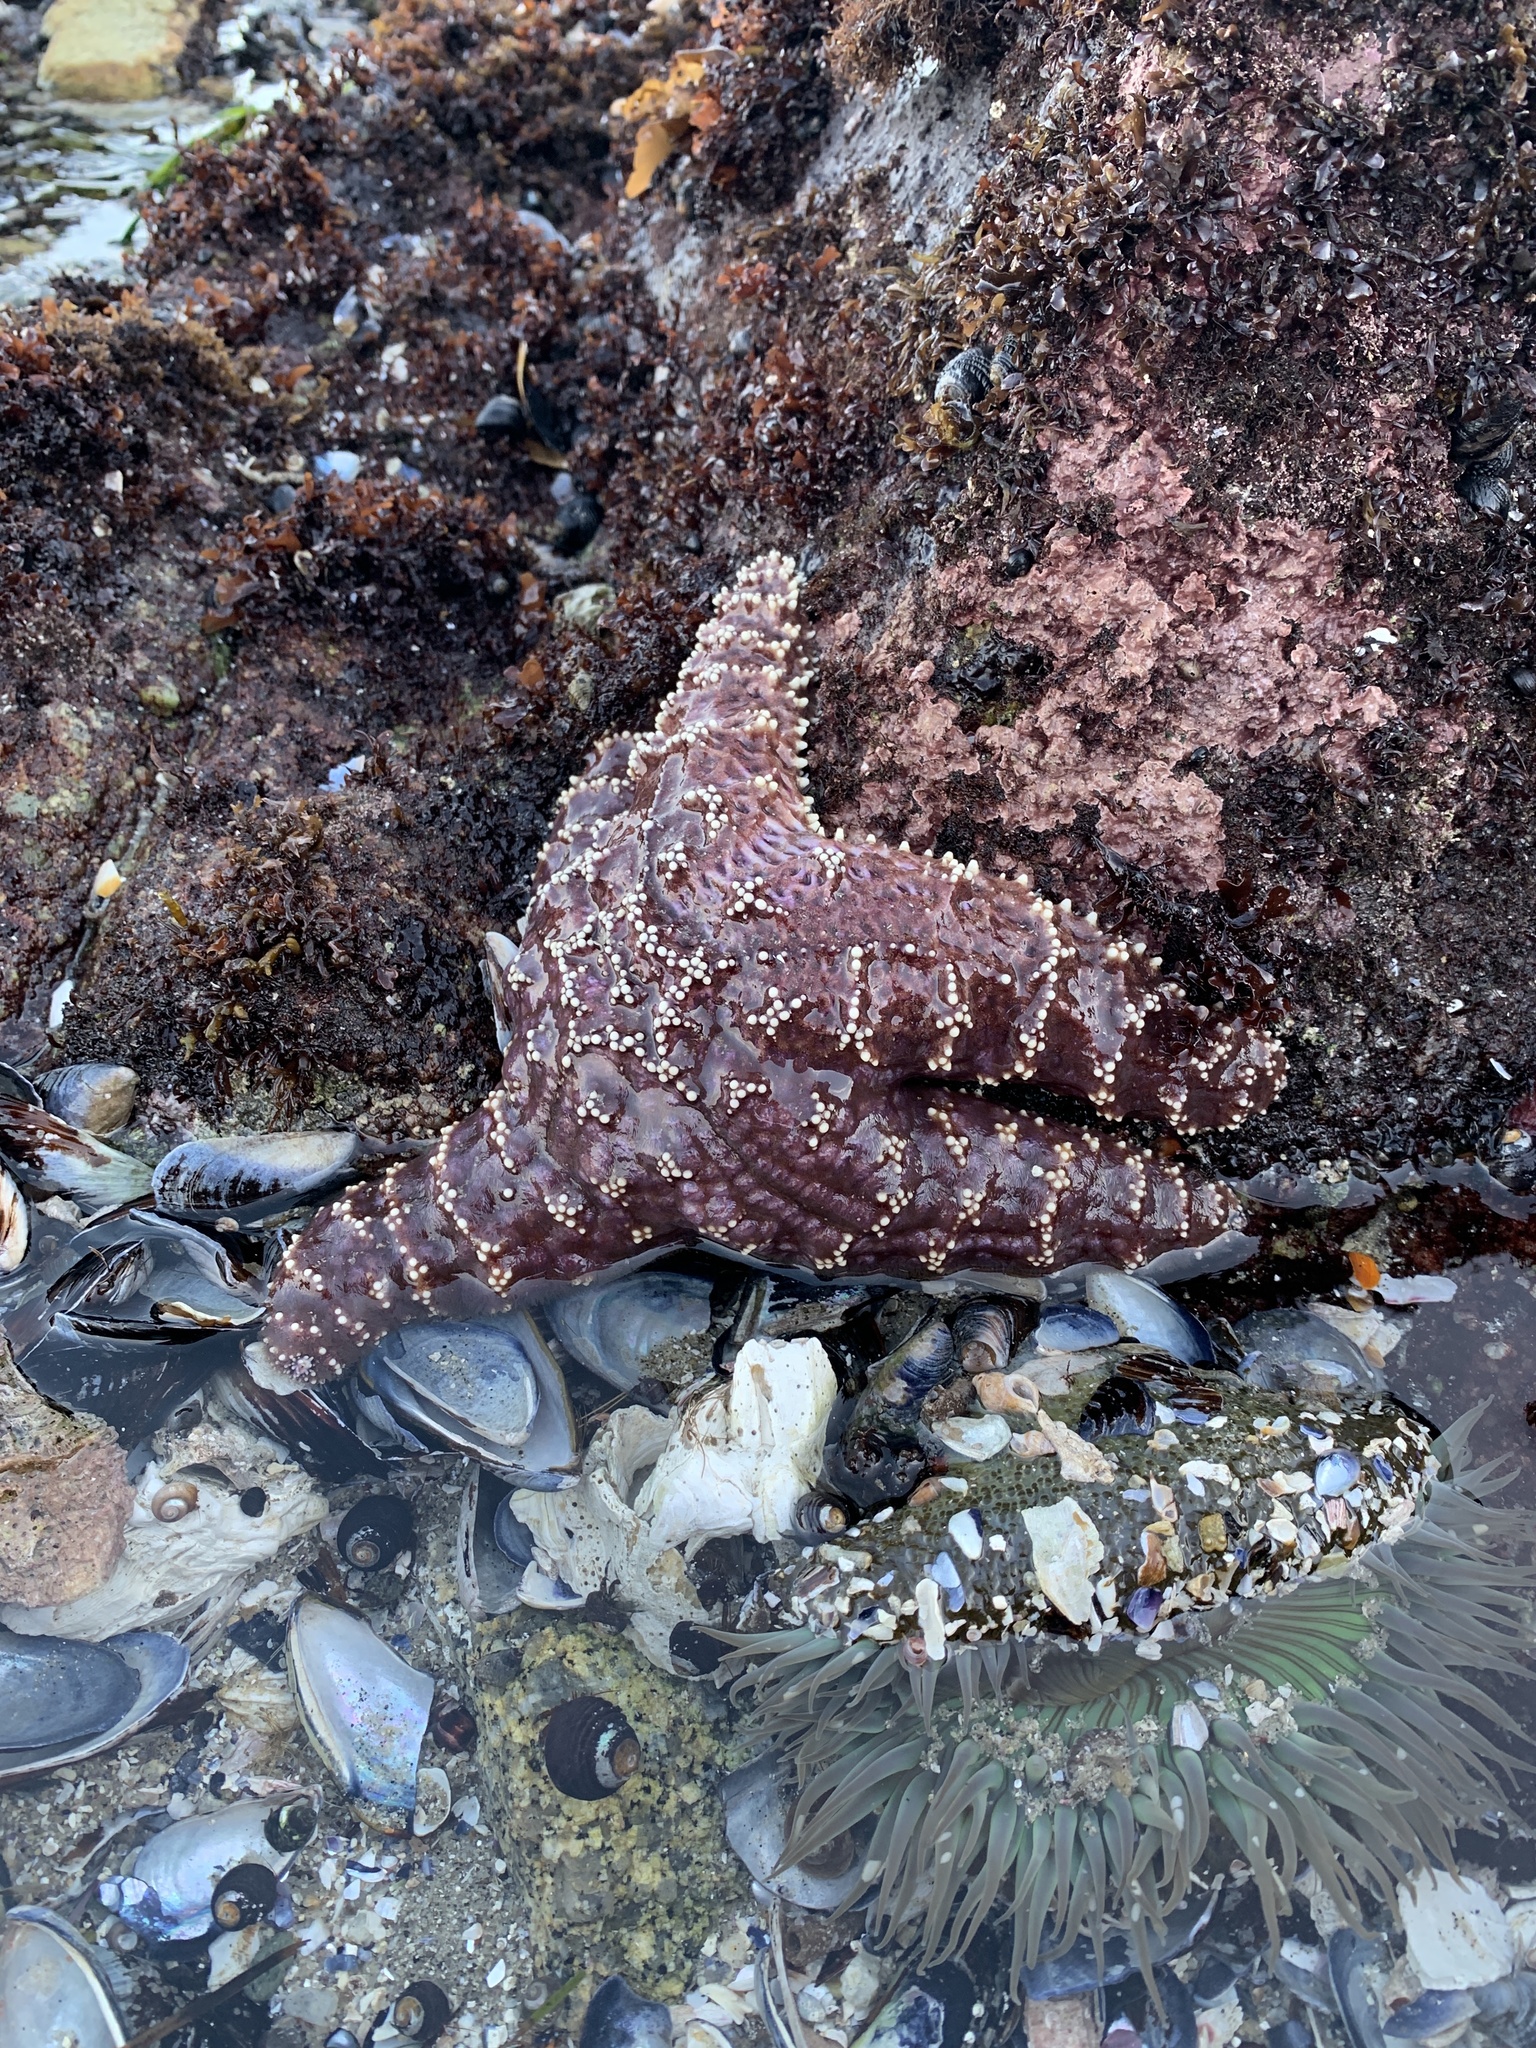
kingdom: Animalia
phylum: Echinodermata
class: Asteroidea
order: Forcipulatida
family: Asteriidae
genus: Pisaster
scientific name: Pisaster ochraceus
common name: Ochre stars
